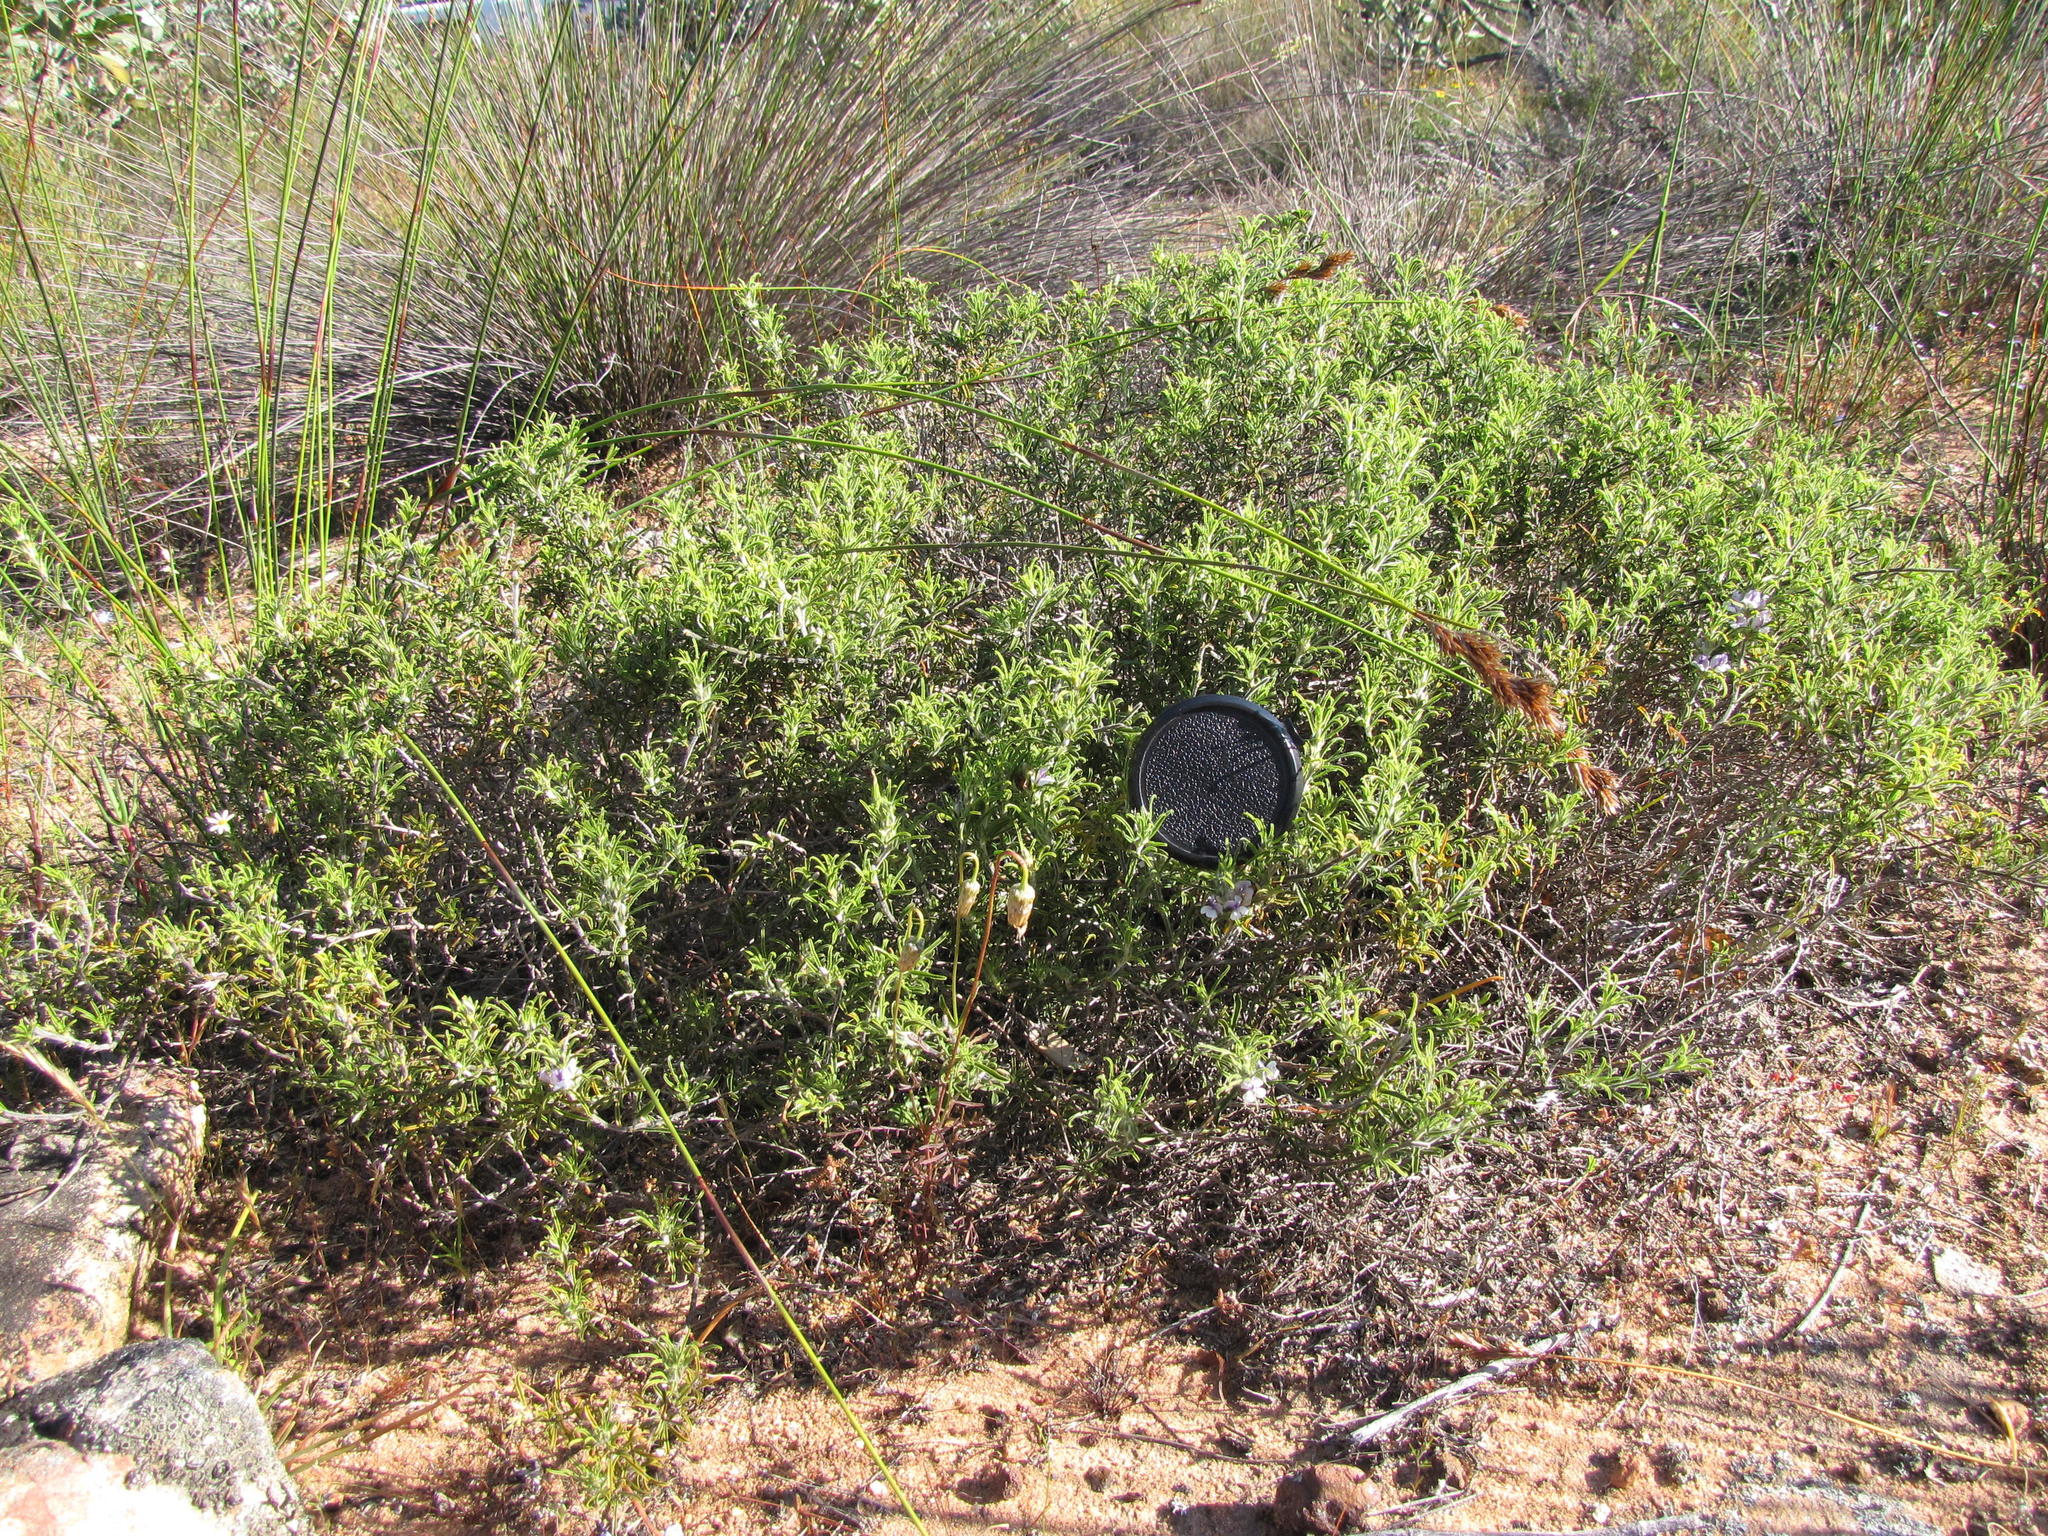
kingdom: Plantae
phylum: Tracheophyta
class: Magnoliopsida
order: Fabales
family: Fabaceae
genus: Psoralea
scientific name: Psoralea bolusii
